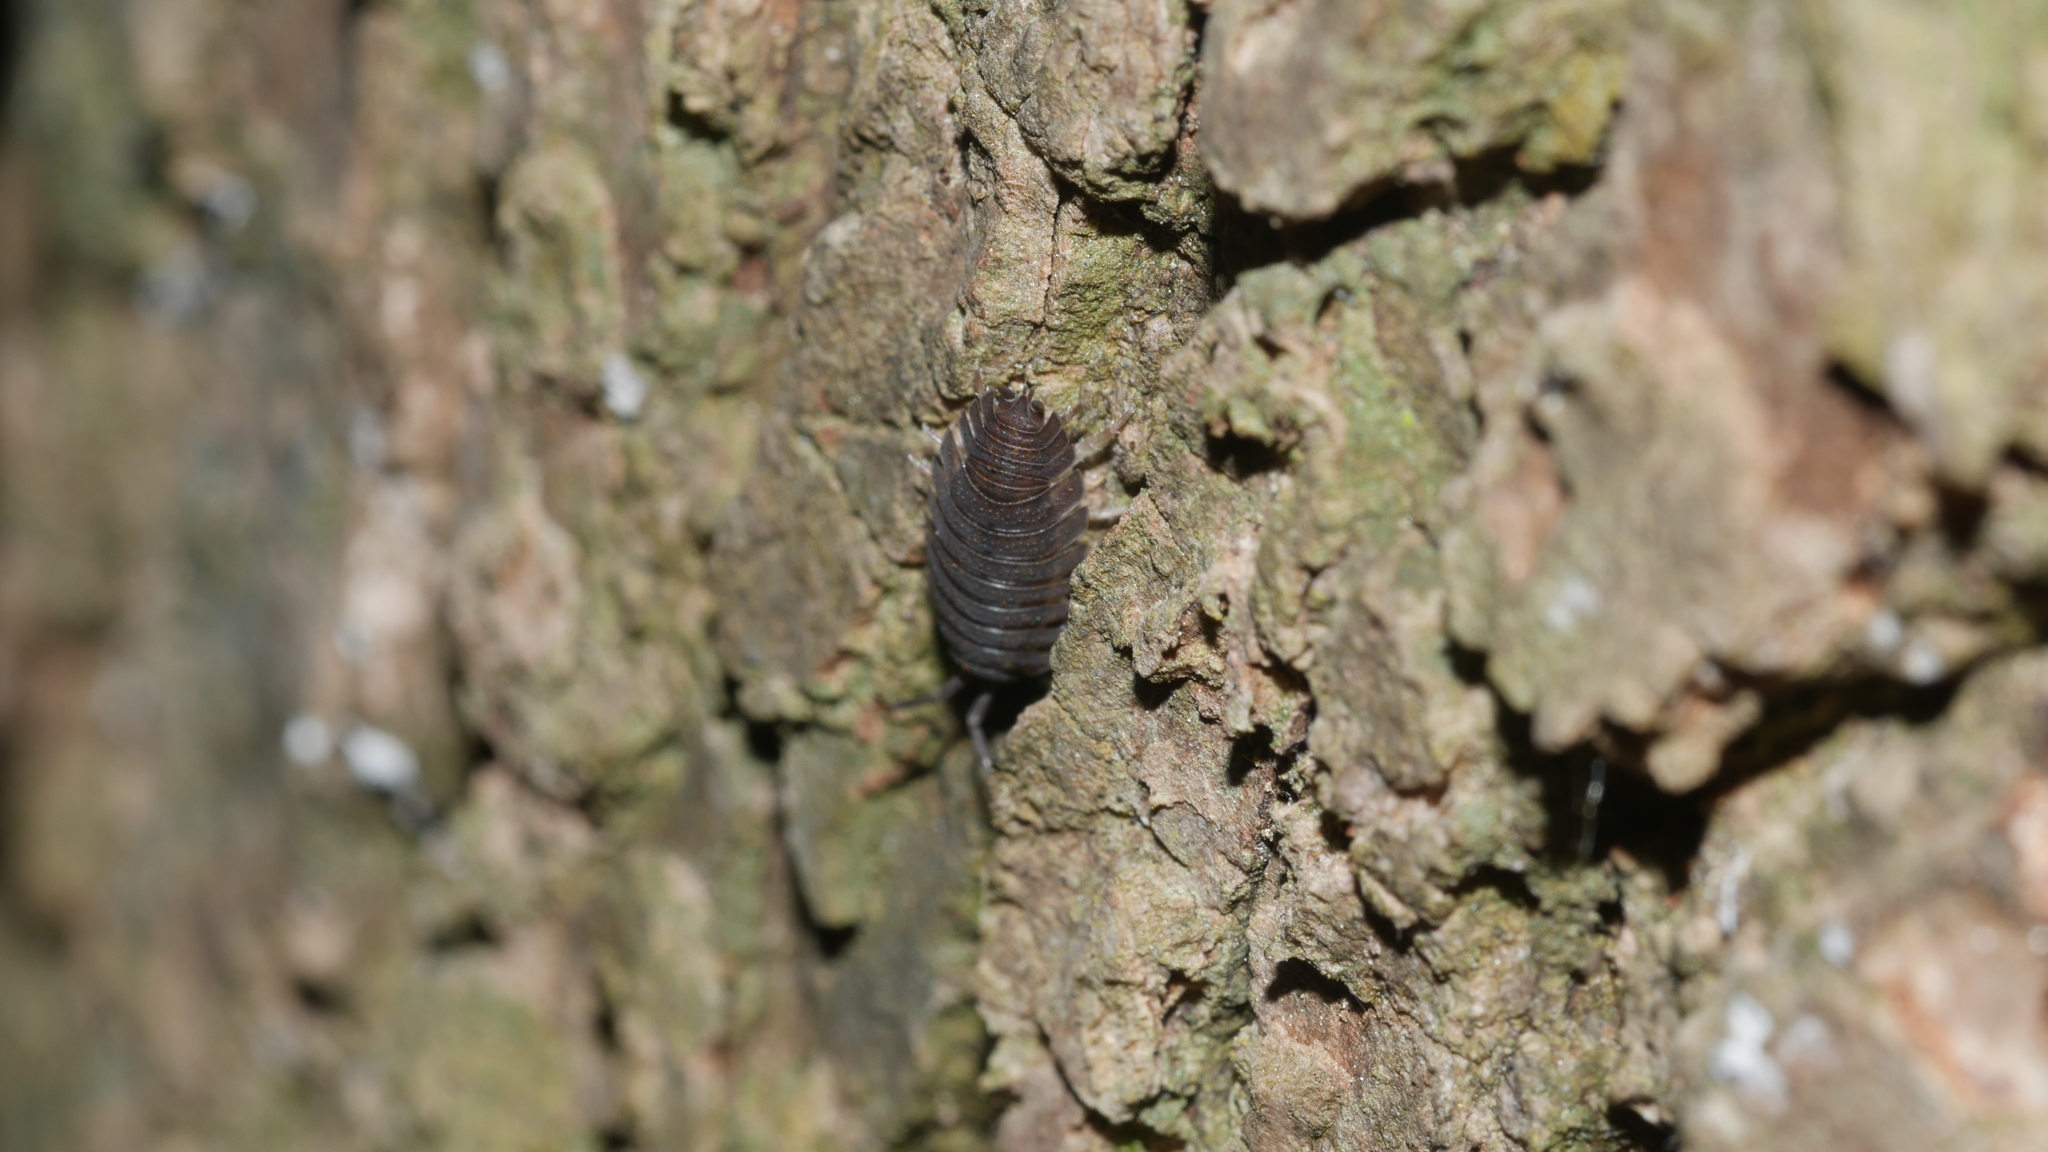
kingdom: Animalia
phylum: Arthropoda
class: Malacostraca
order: Isopoda
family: Porcellionidae
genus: Porcellio
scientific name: Porcellio scaber
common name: Common rough woodlouse
